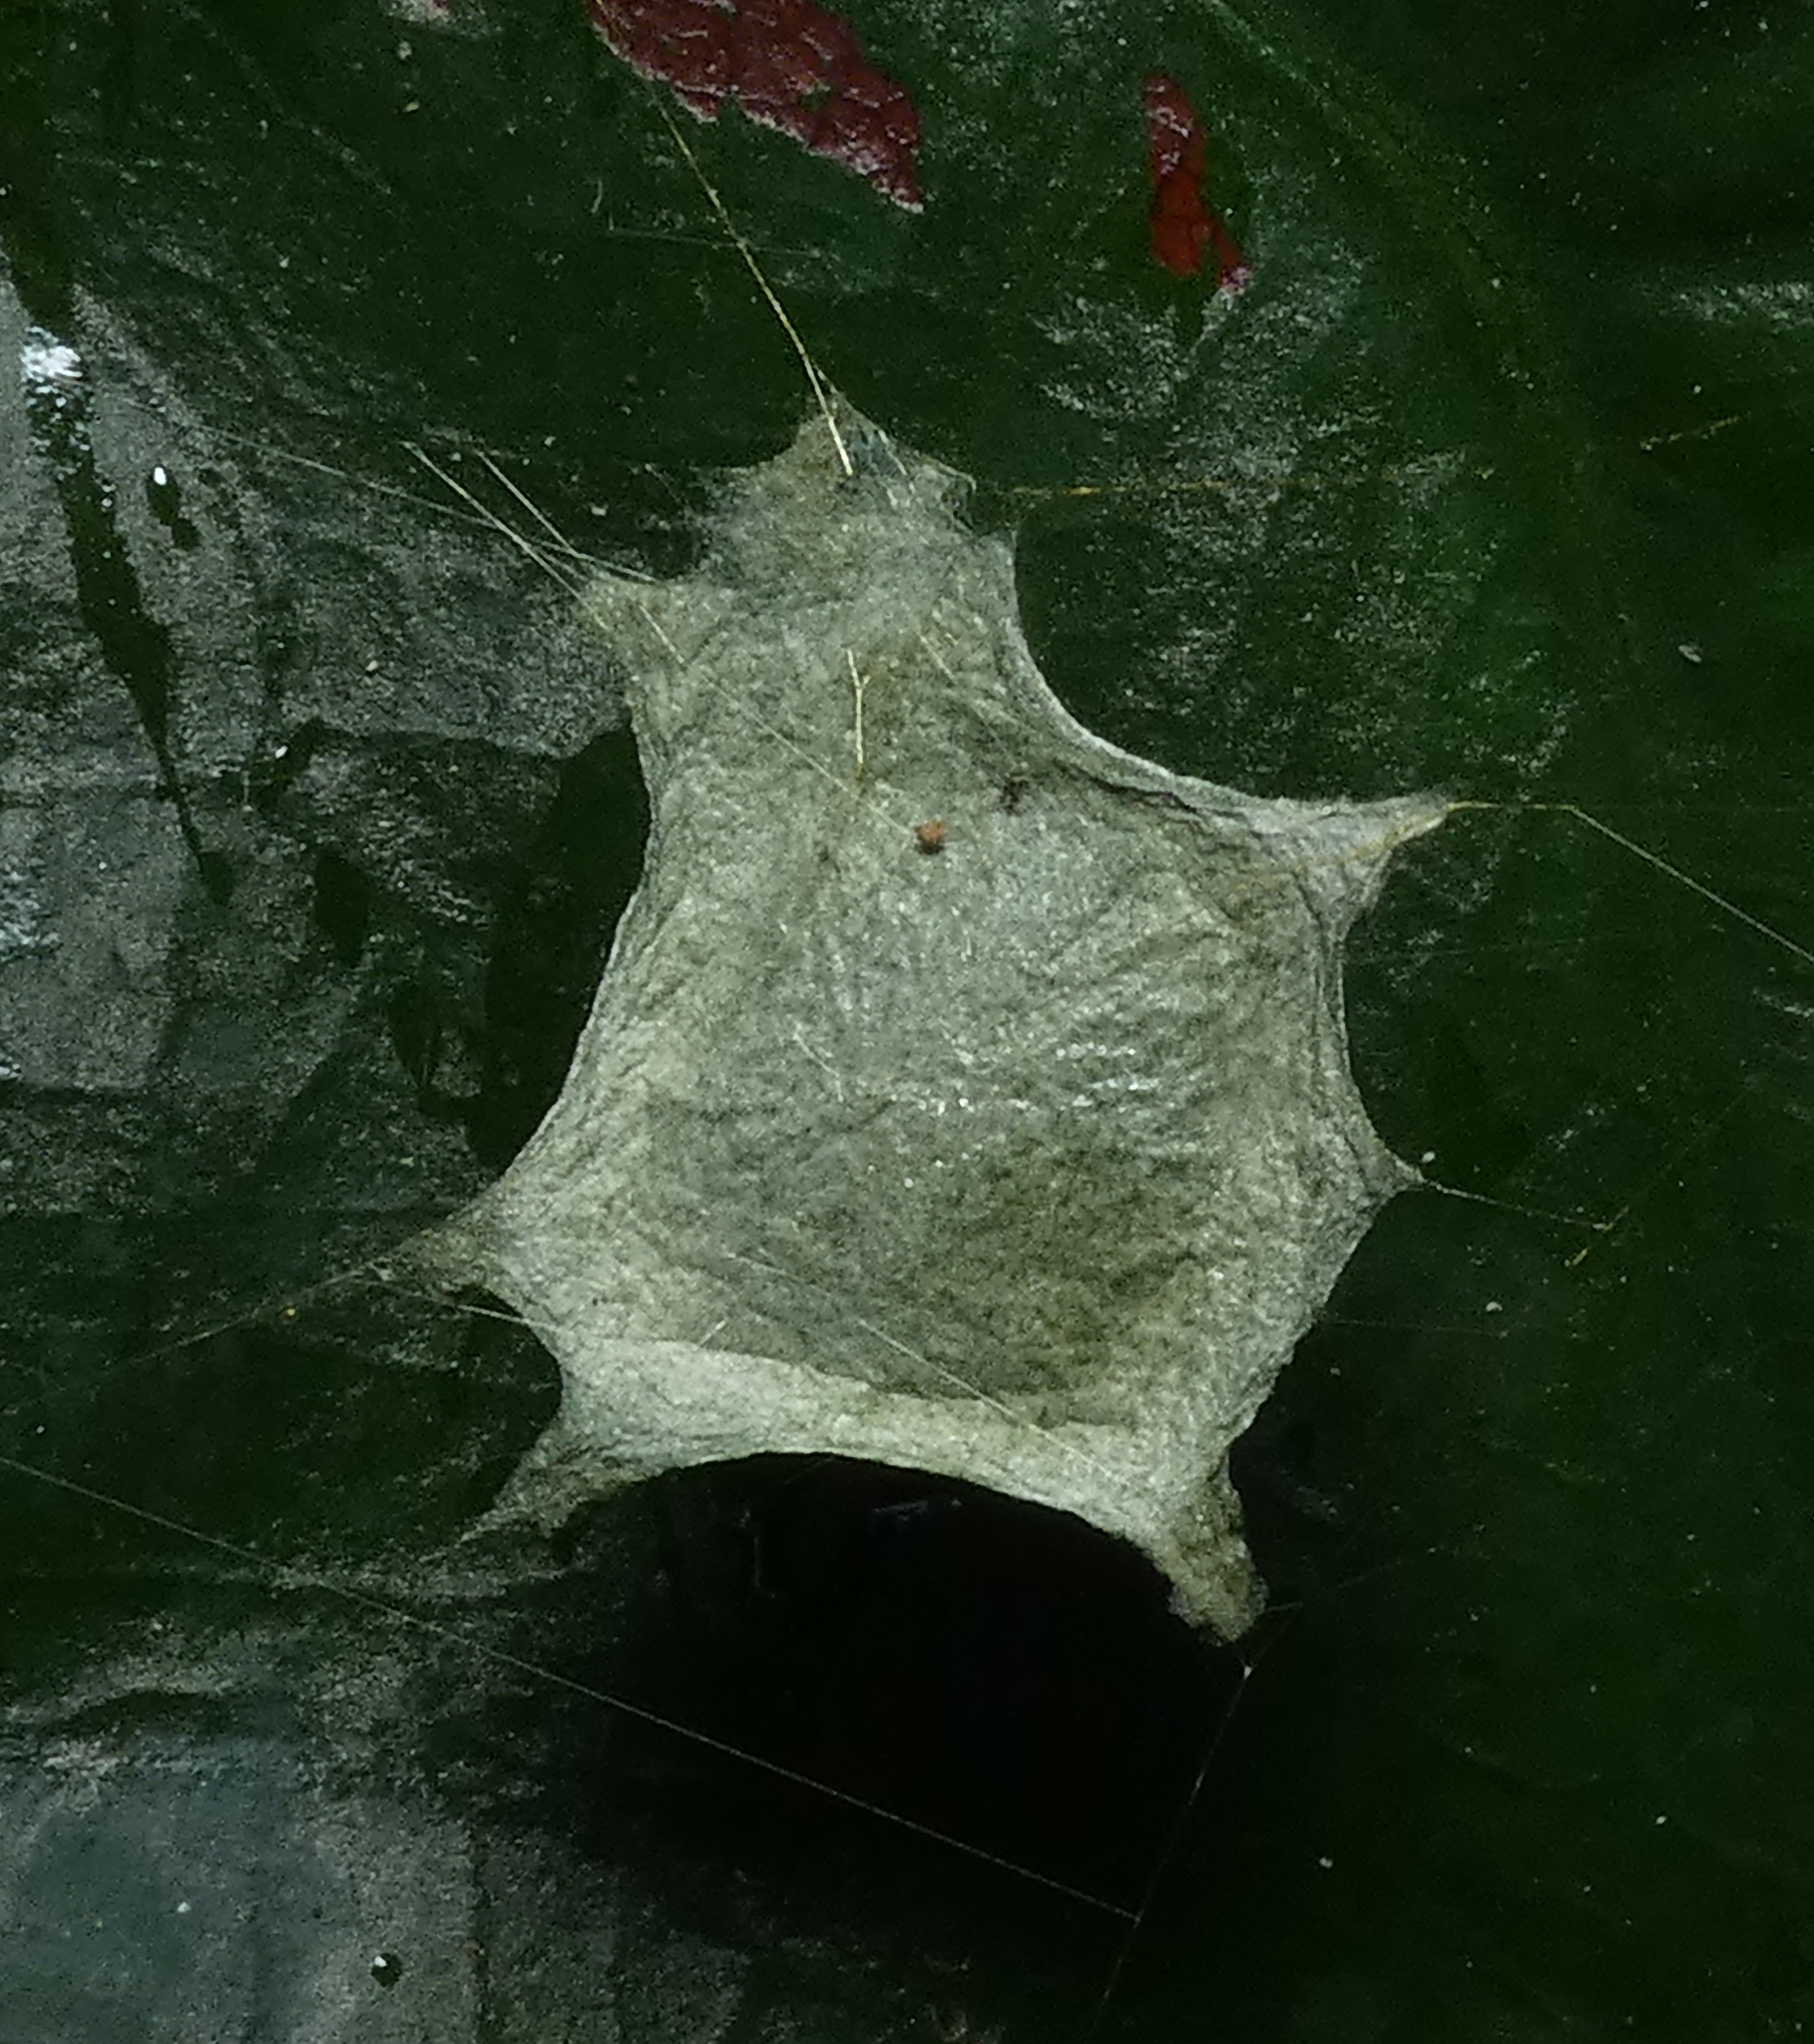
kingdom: Animalia
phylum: Arthropoda
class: Arachnida
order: Araneae
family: Araneidae
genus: Argiope
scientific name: Argiope argentata
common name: Orb weavers
